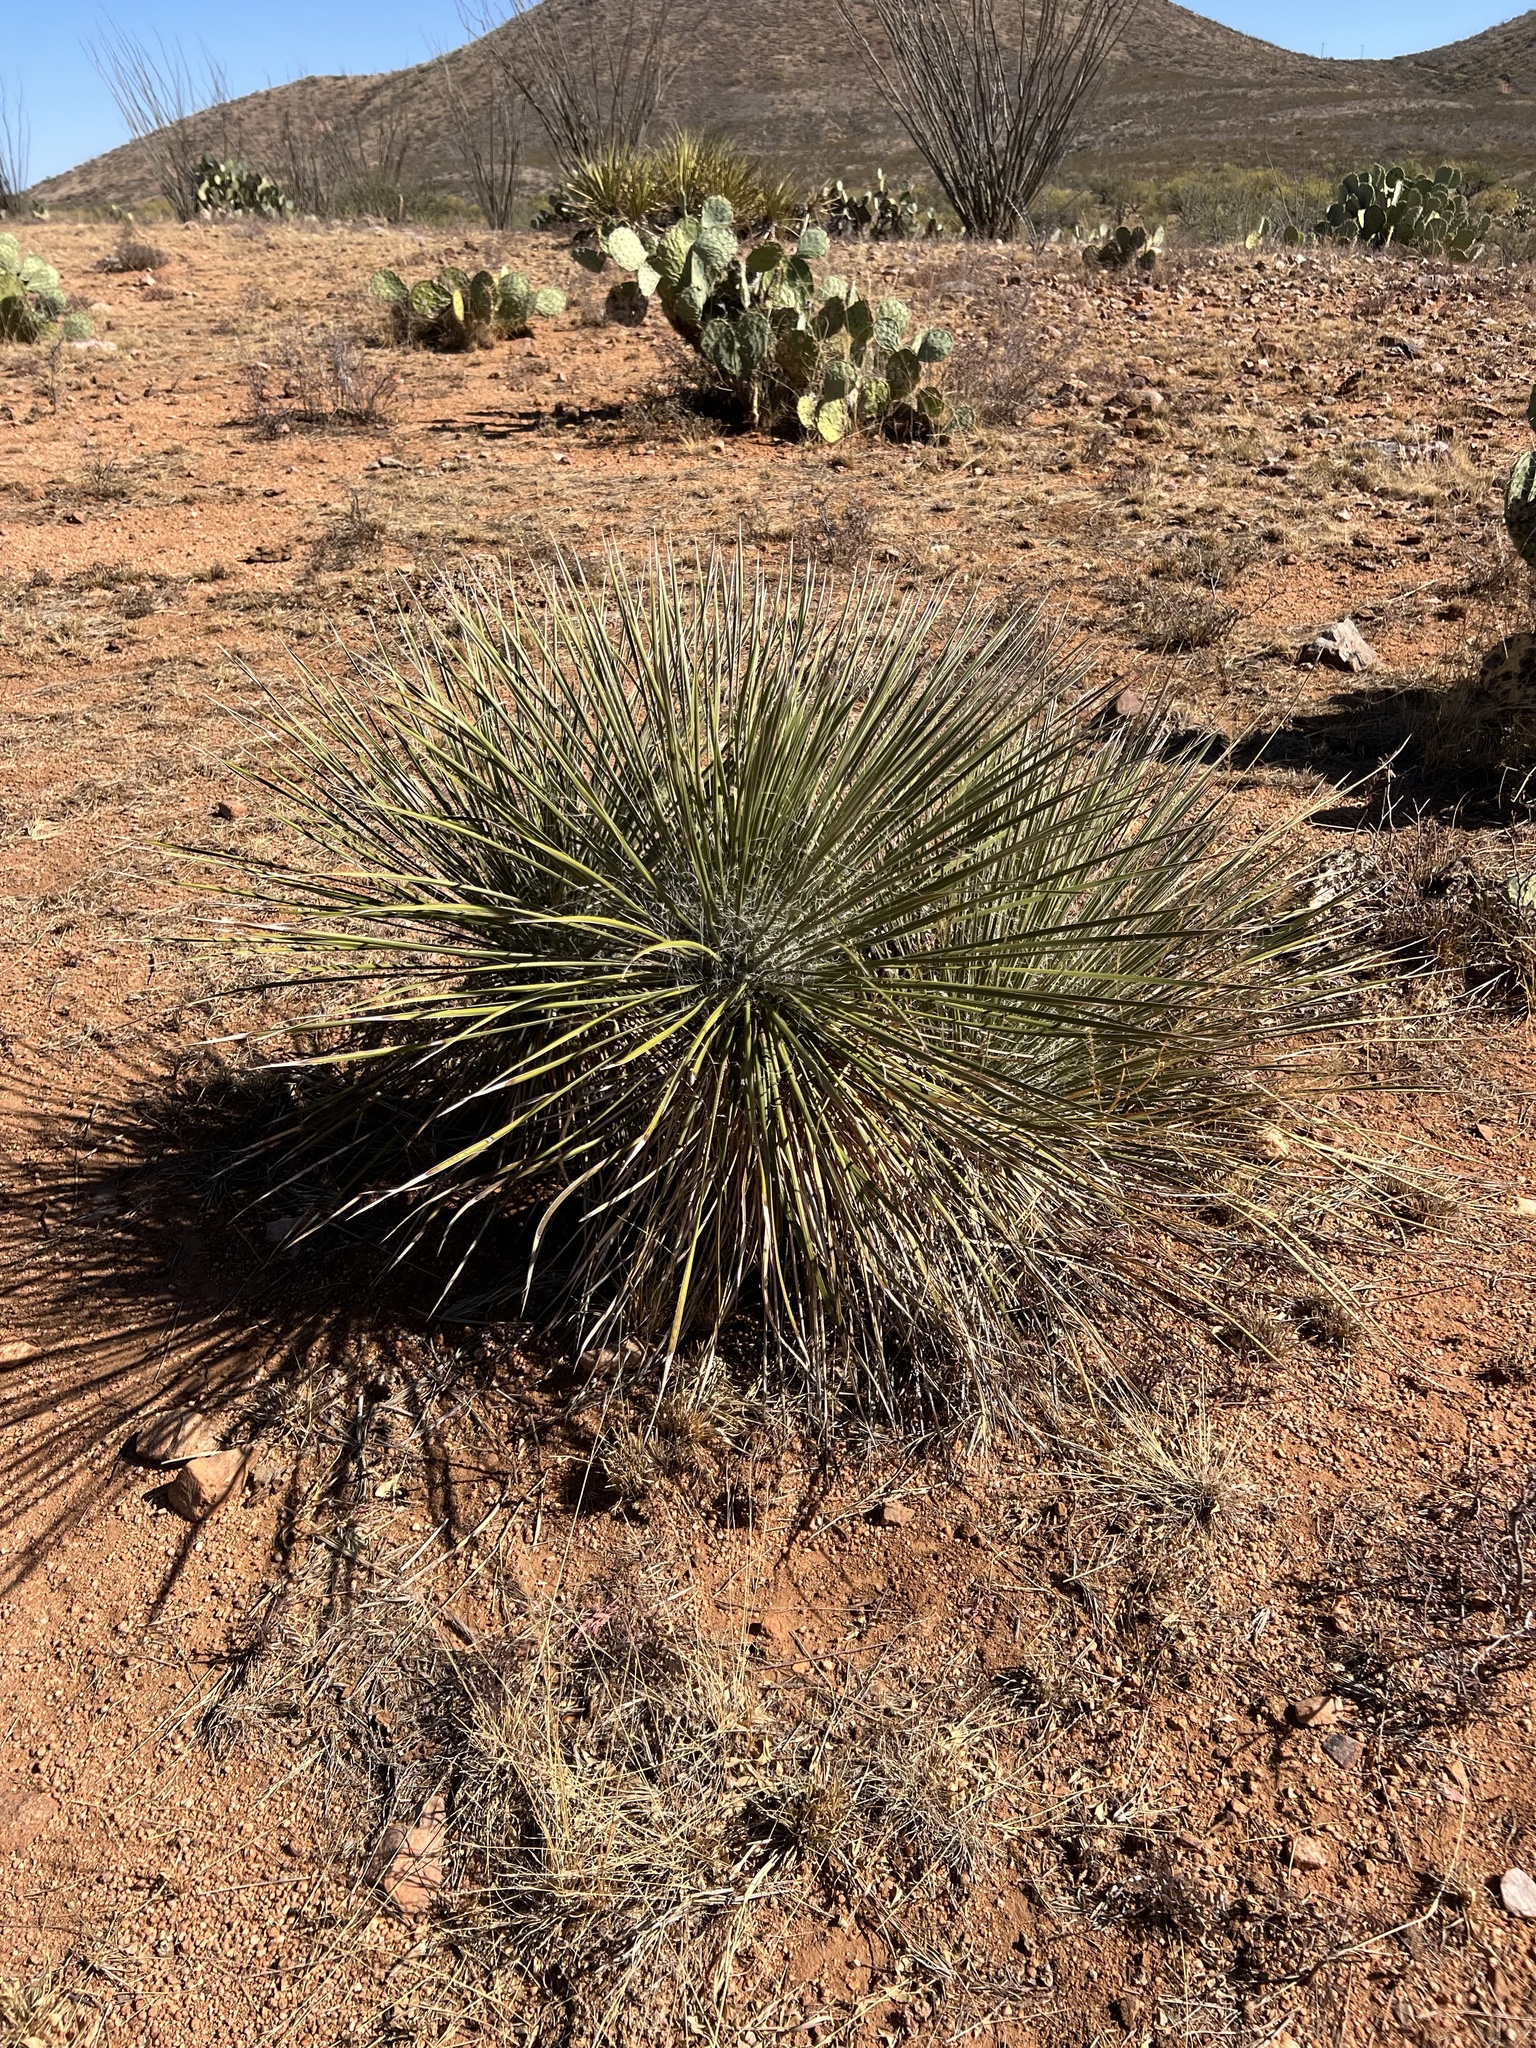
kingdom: Plantae
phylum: Tracheophyta
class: Liliopsida
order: Asparagales
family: Asparagaceae
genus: Yucca
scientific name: Yucca elata
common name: Palmella
